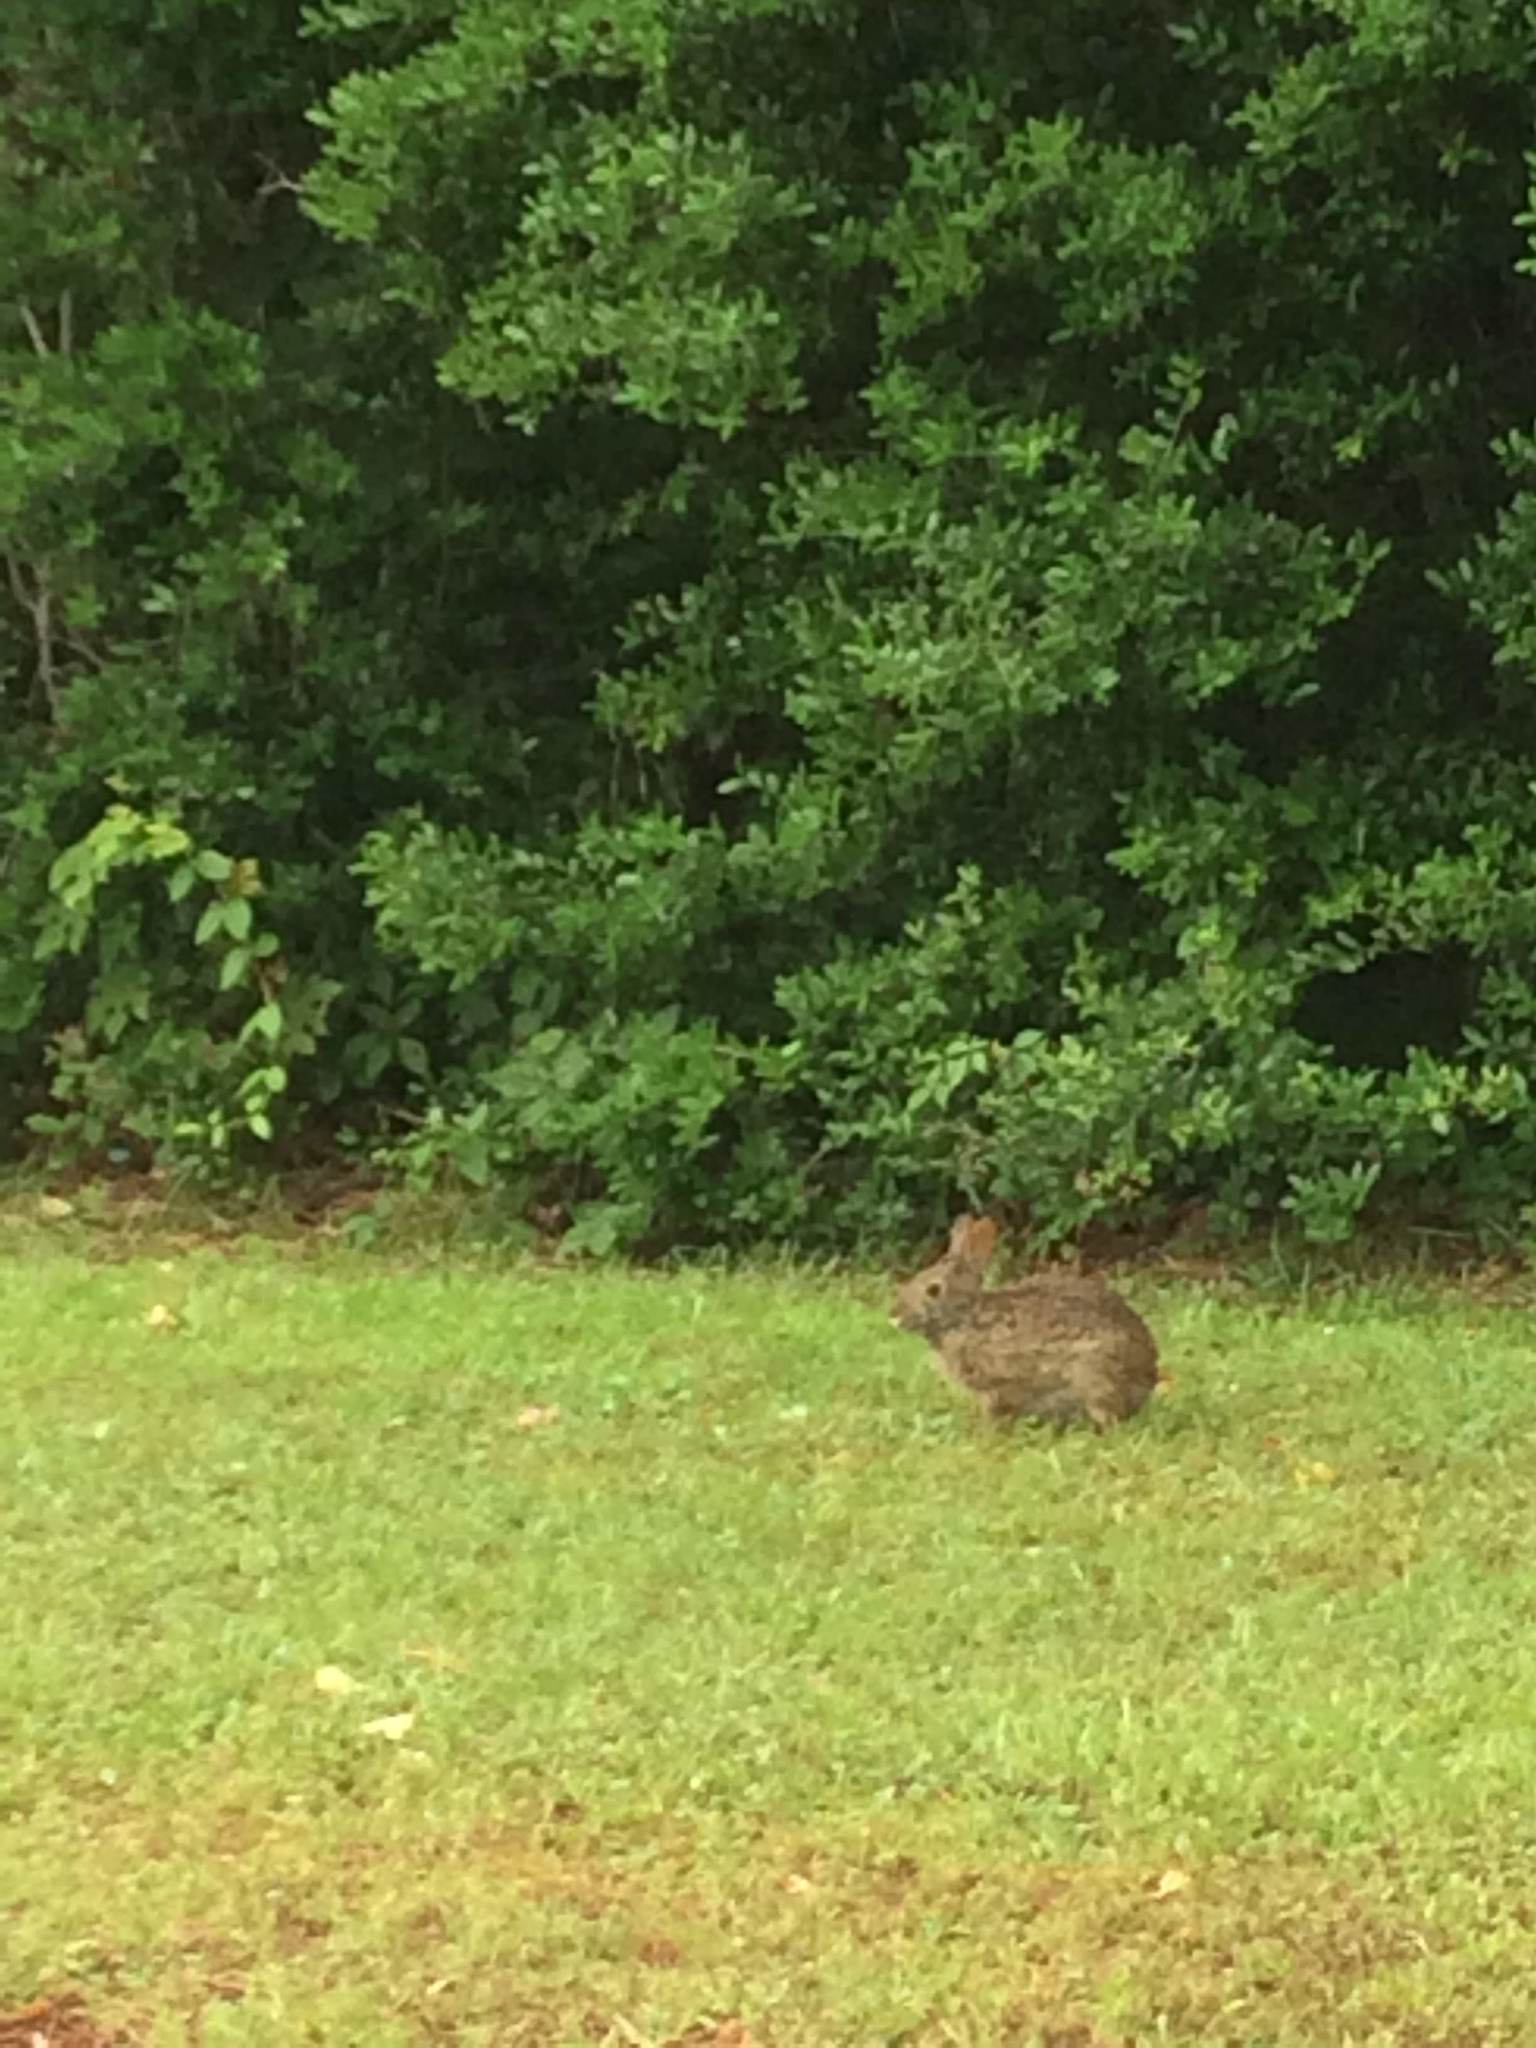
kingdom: Animalia
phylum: Chordata
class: Mammalia
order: Lagomorpha
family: Leporidae
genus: Sylvilagus
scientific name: Sylvilagus palustris
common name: Marsh rabbit
